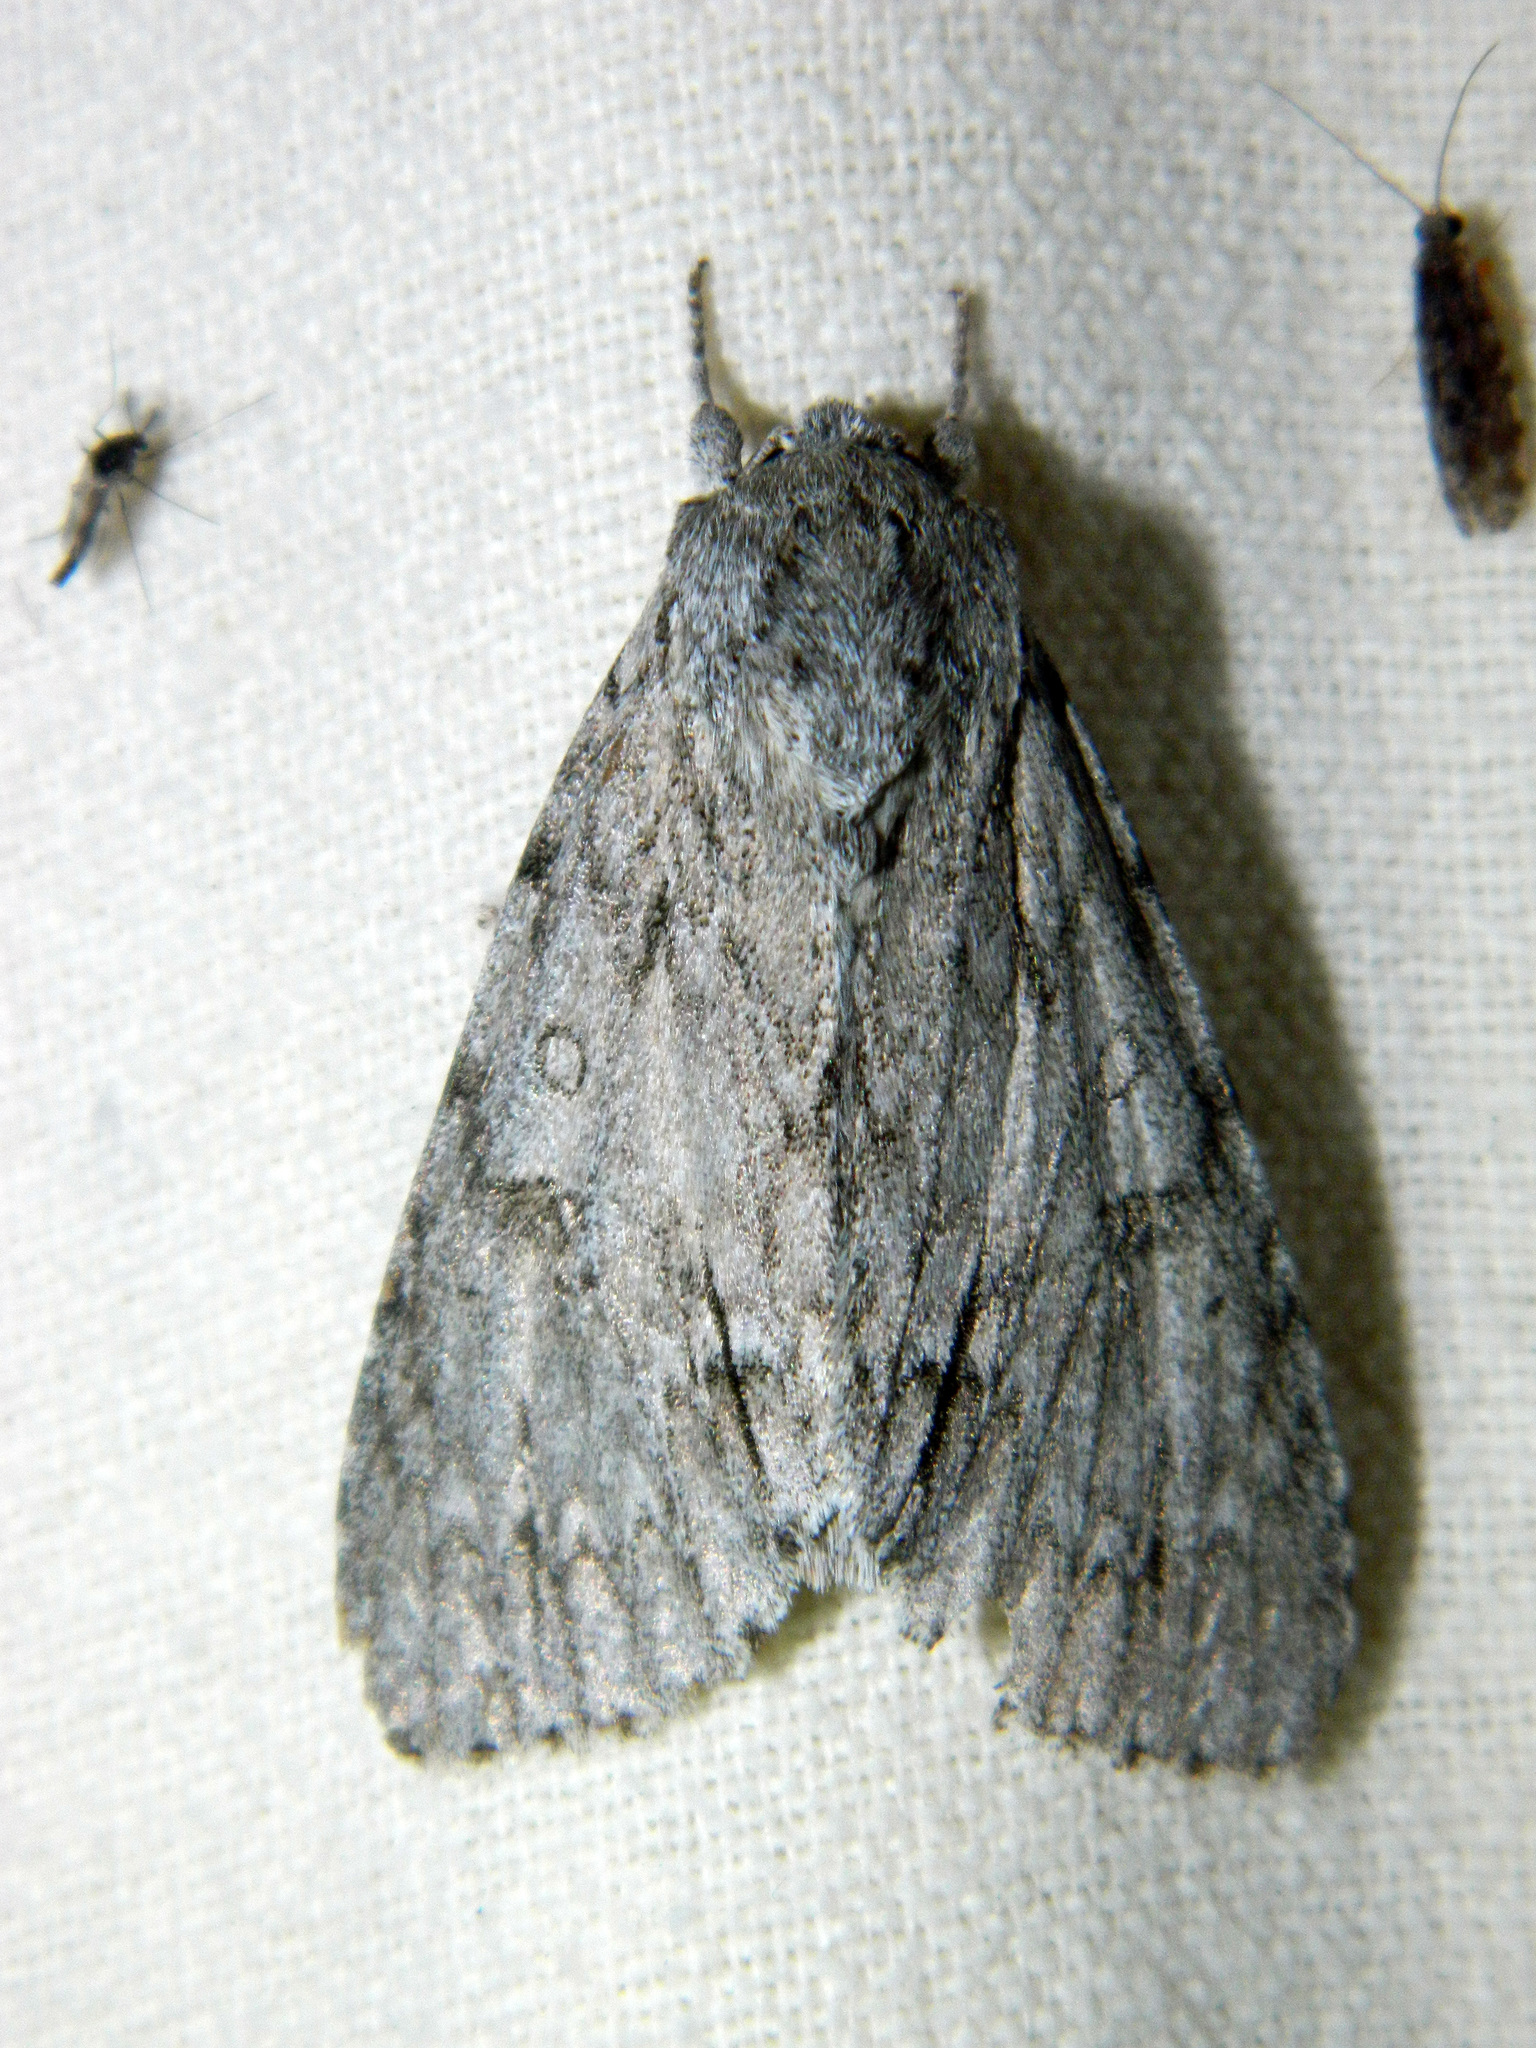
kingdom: Animalia
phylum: Arthropoda
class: Insecta
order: Lepidoptera
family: Noctuidae
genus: Acronicta
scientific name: Acronicta americana
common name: American dagger
